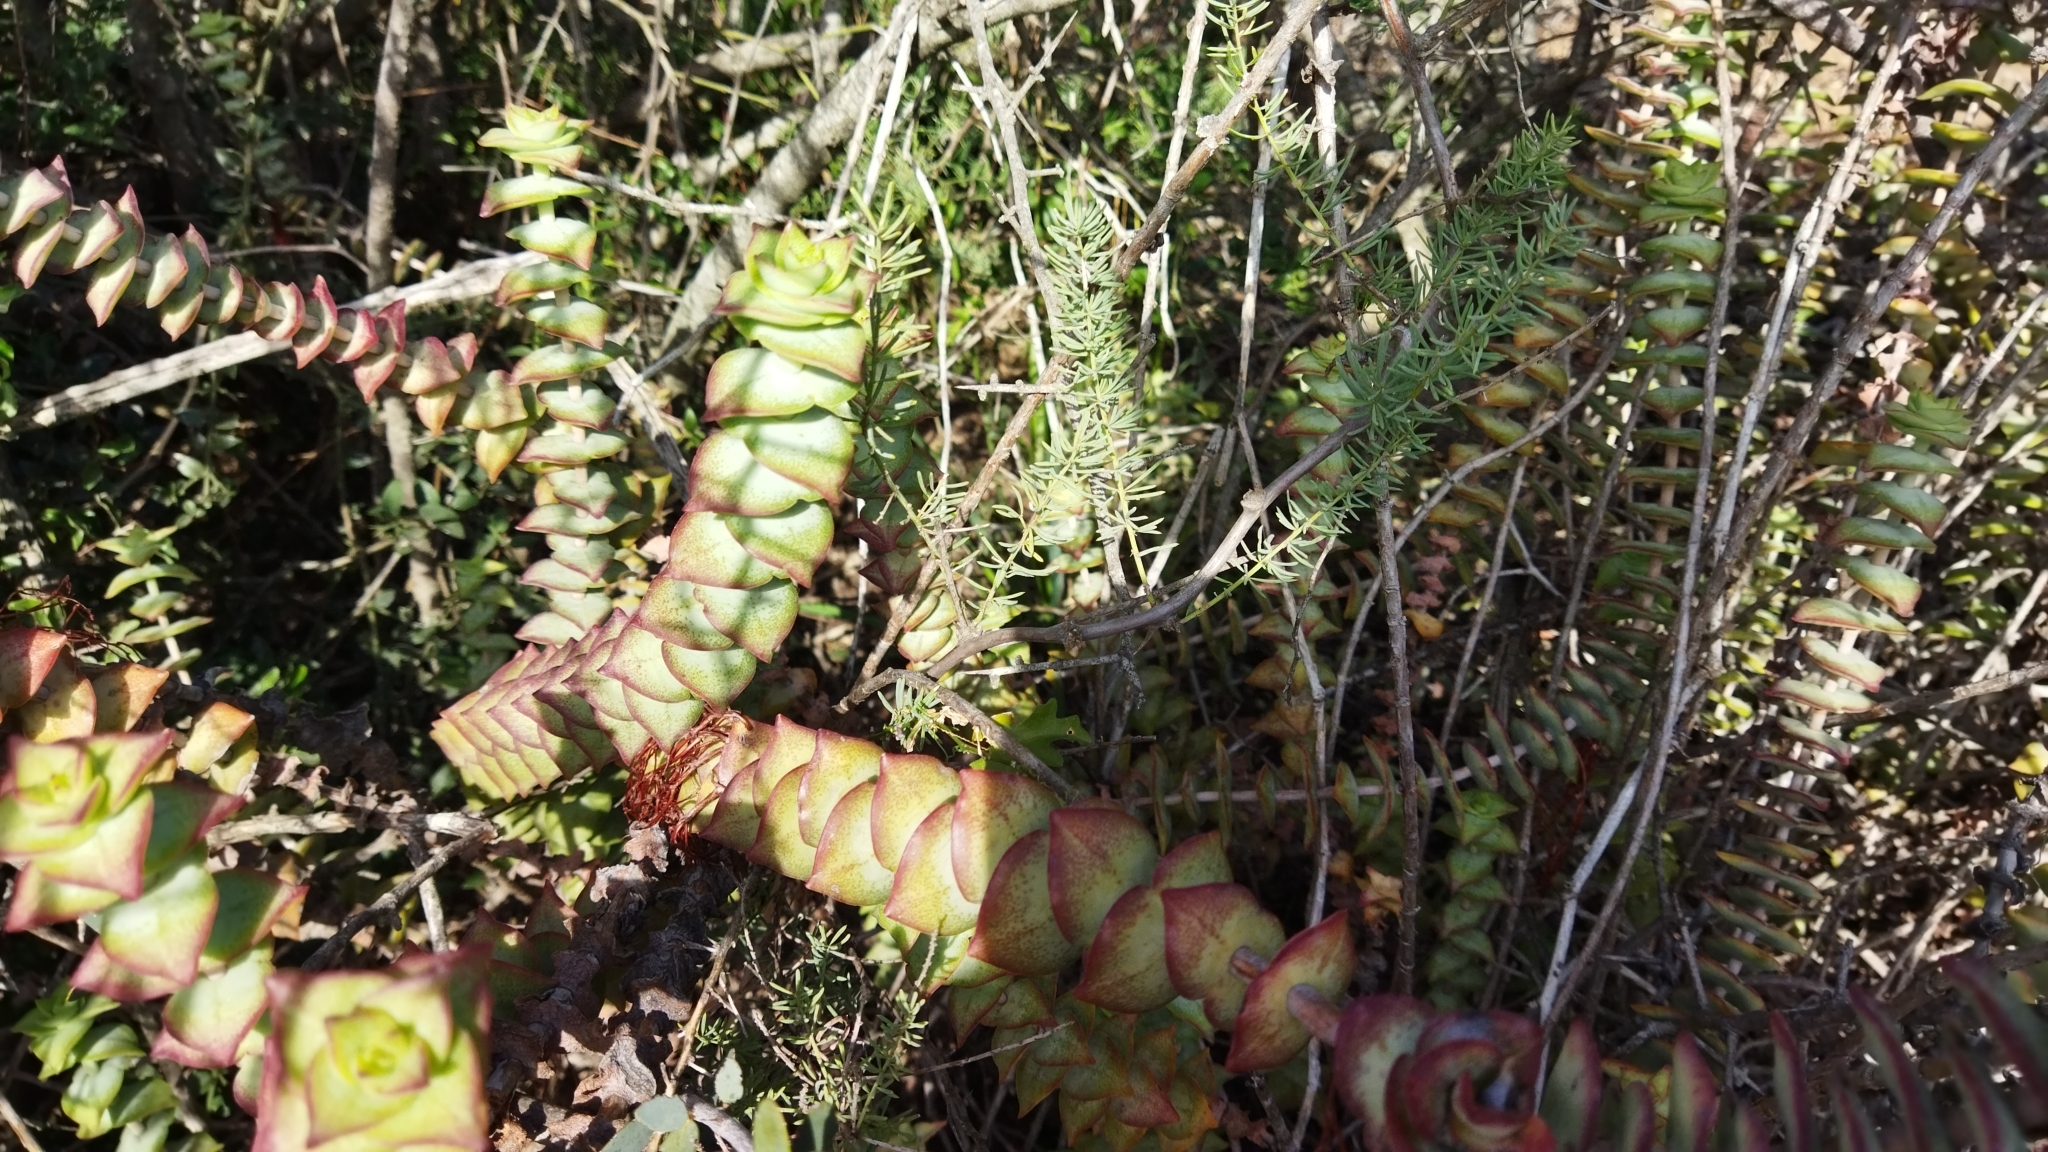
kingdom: Plantae
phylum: Tracheophyta
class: Magnoliopsida
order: Saxifragales
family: Crassulaceae
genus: Crassula
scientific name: Crassula perforata
